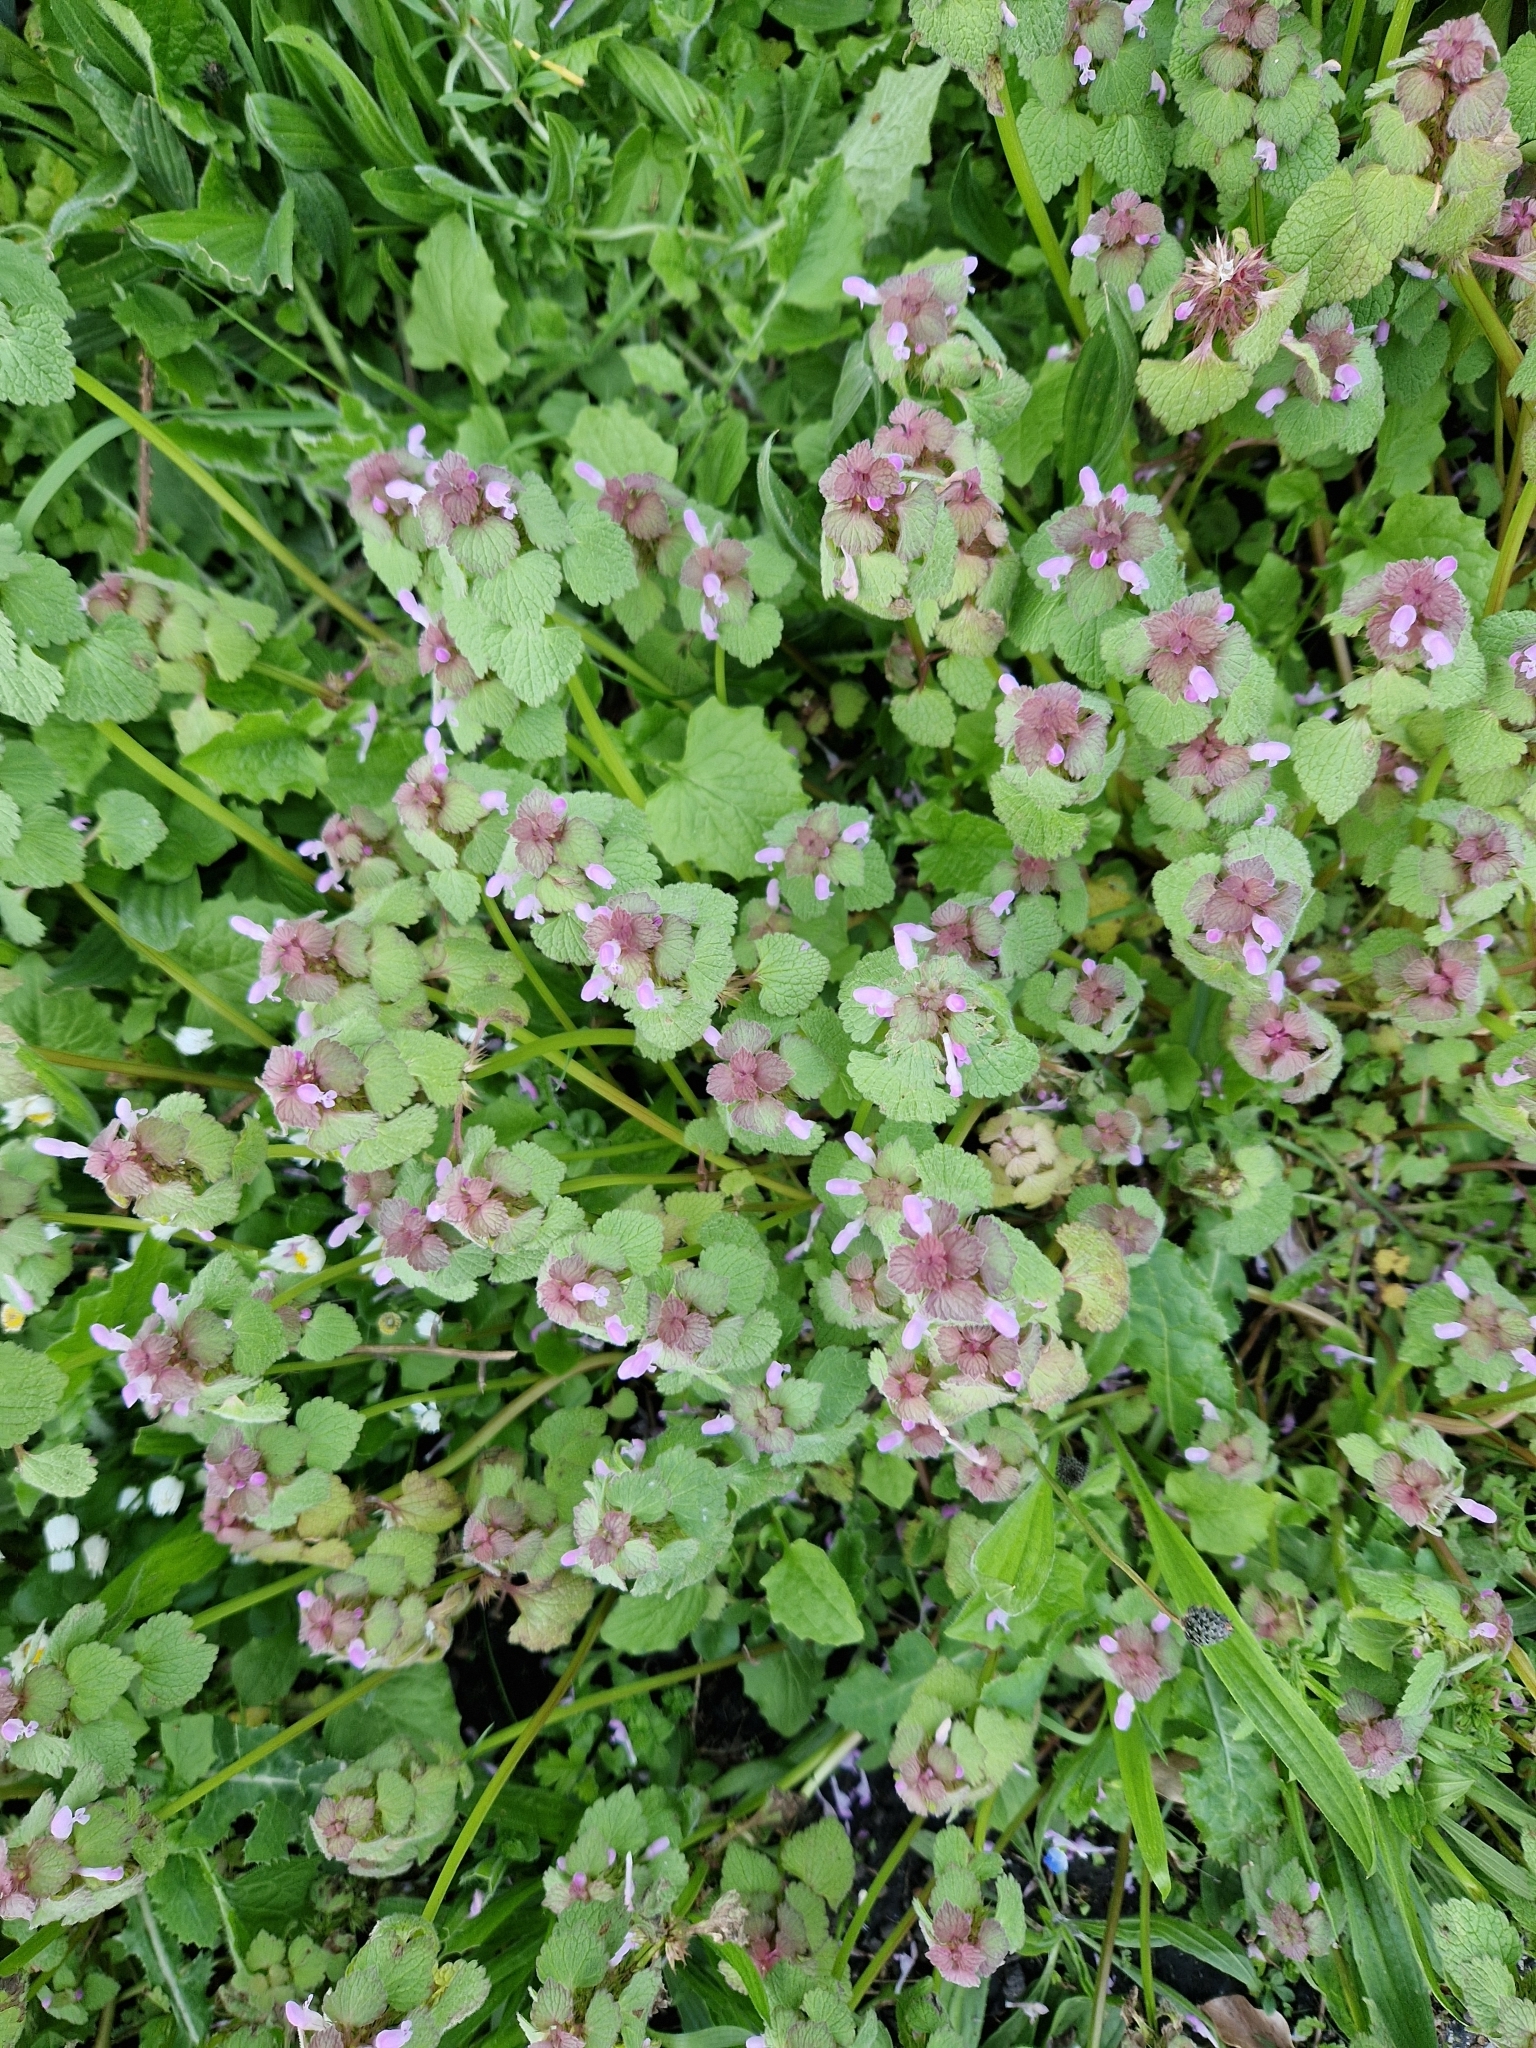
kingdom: Plantae
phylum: Tracheophyta
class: Magnoliopsida
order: Lamiales
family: Lamiaceae
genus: Lamium
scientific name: Lamium purpureum
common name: Red dead-nettle
